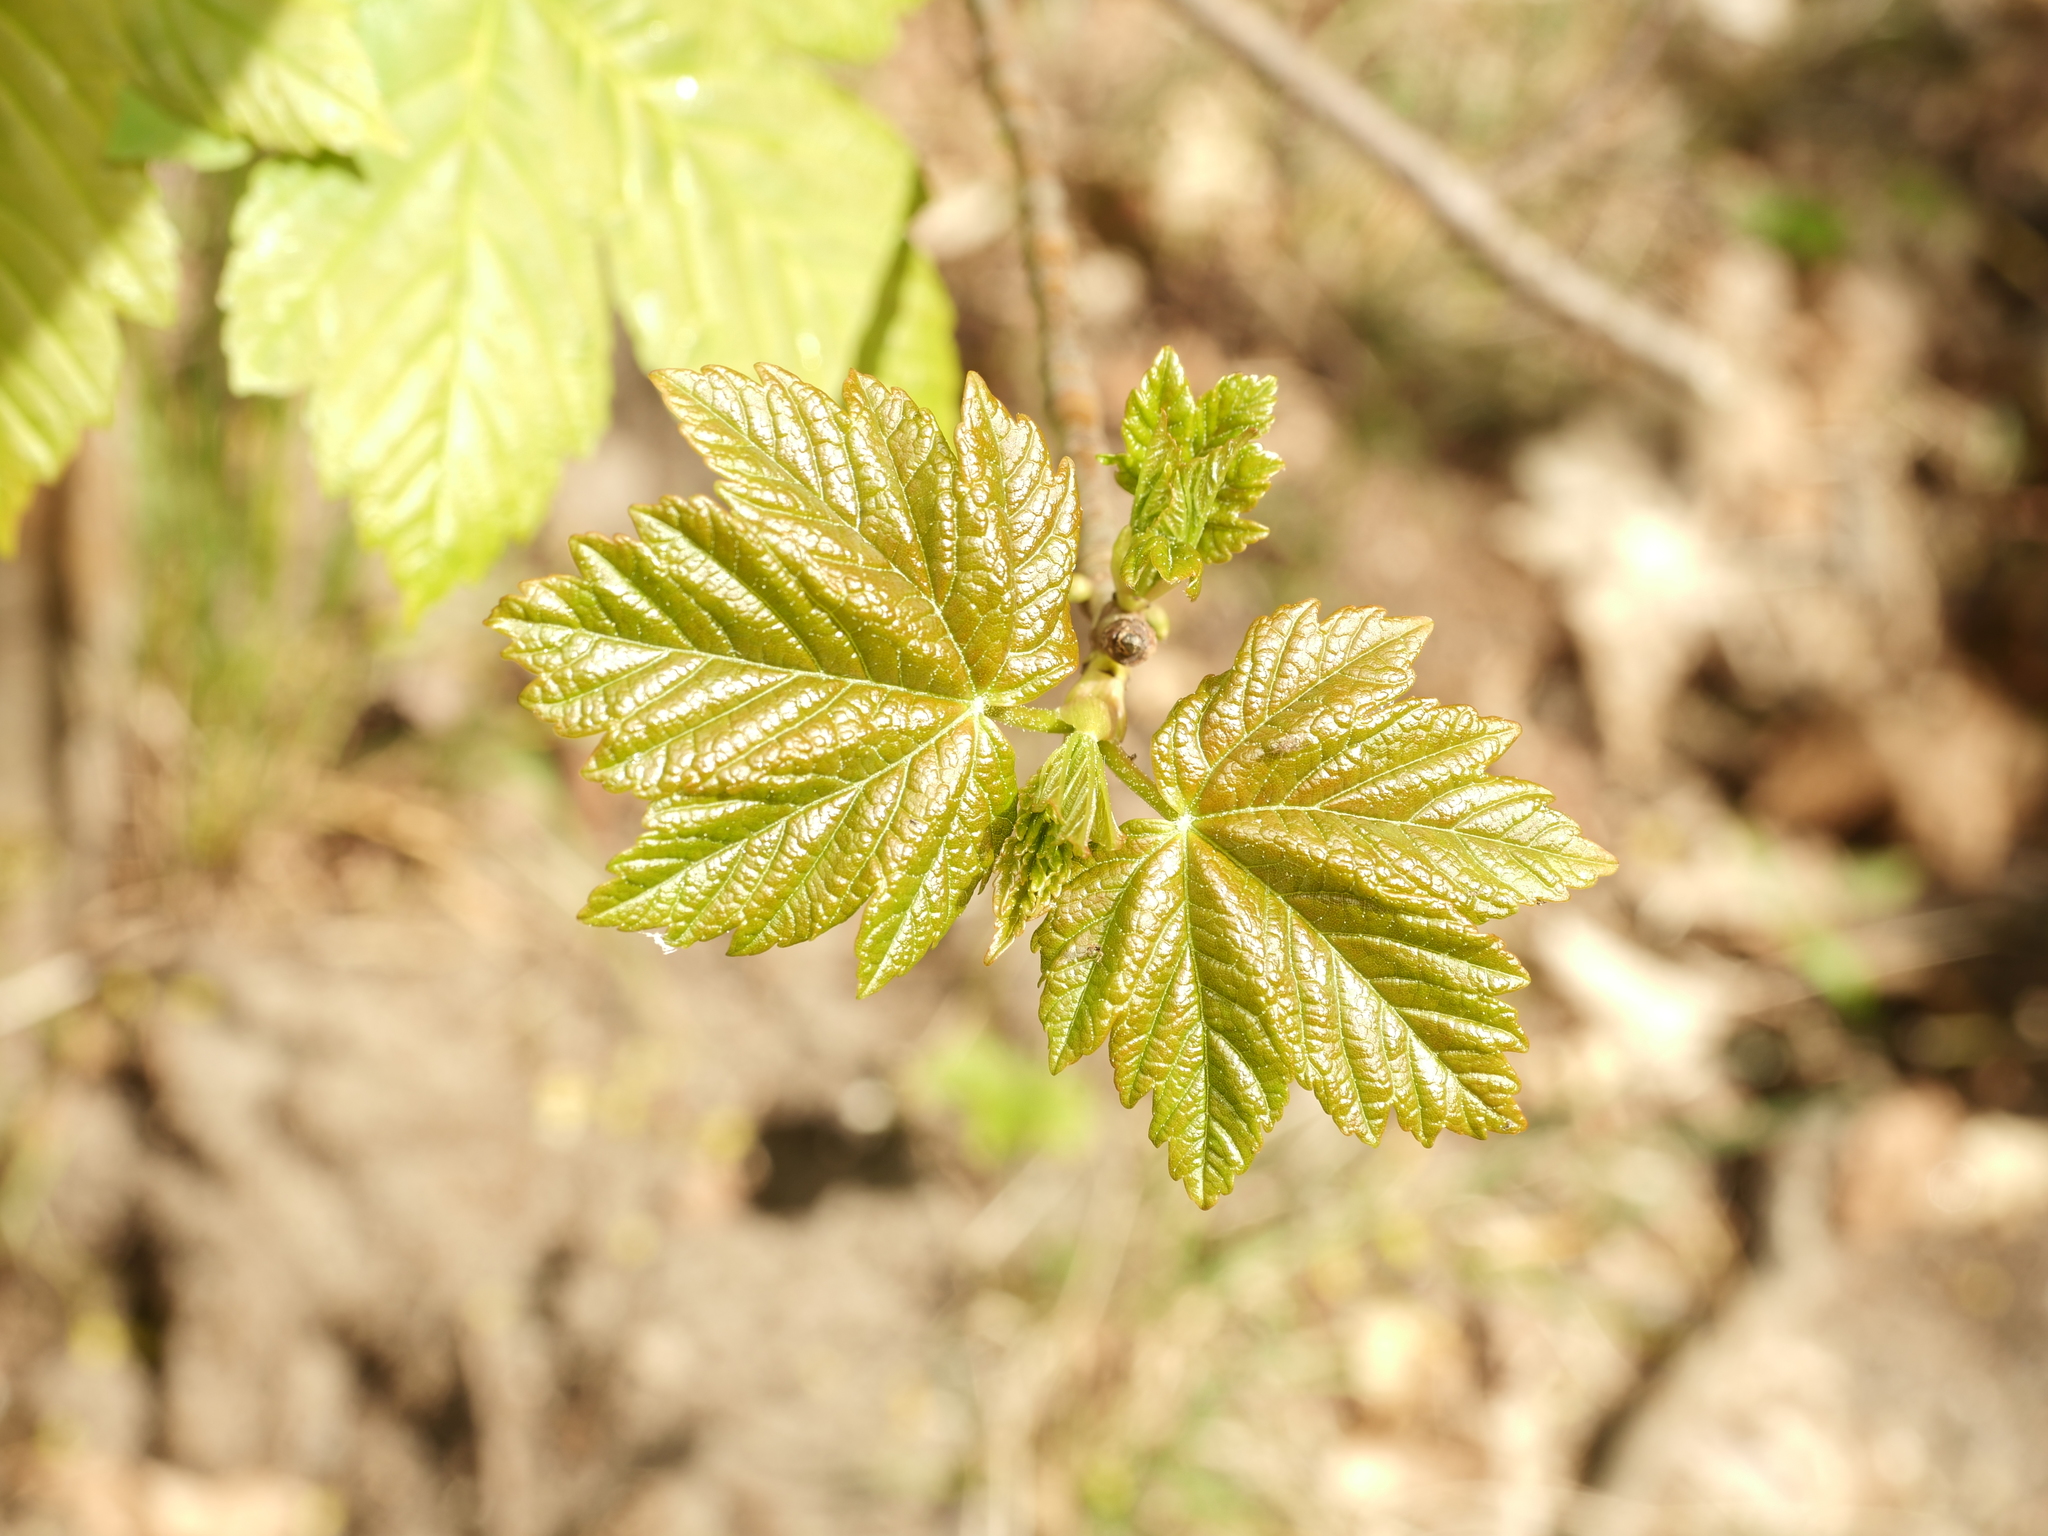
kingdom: Plantae
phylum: Tracheophyta
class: Magnoliopsida
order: Sapindales
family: Sapindaceae
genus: Acer
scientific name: Acer pseudoplatanus
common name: Sycamore
